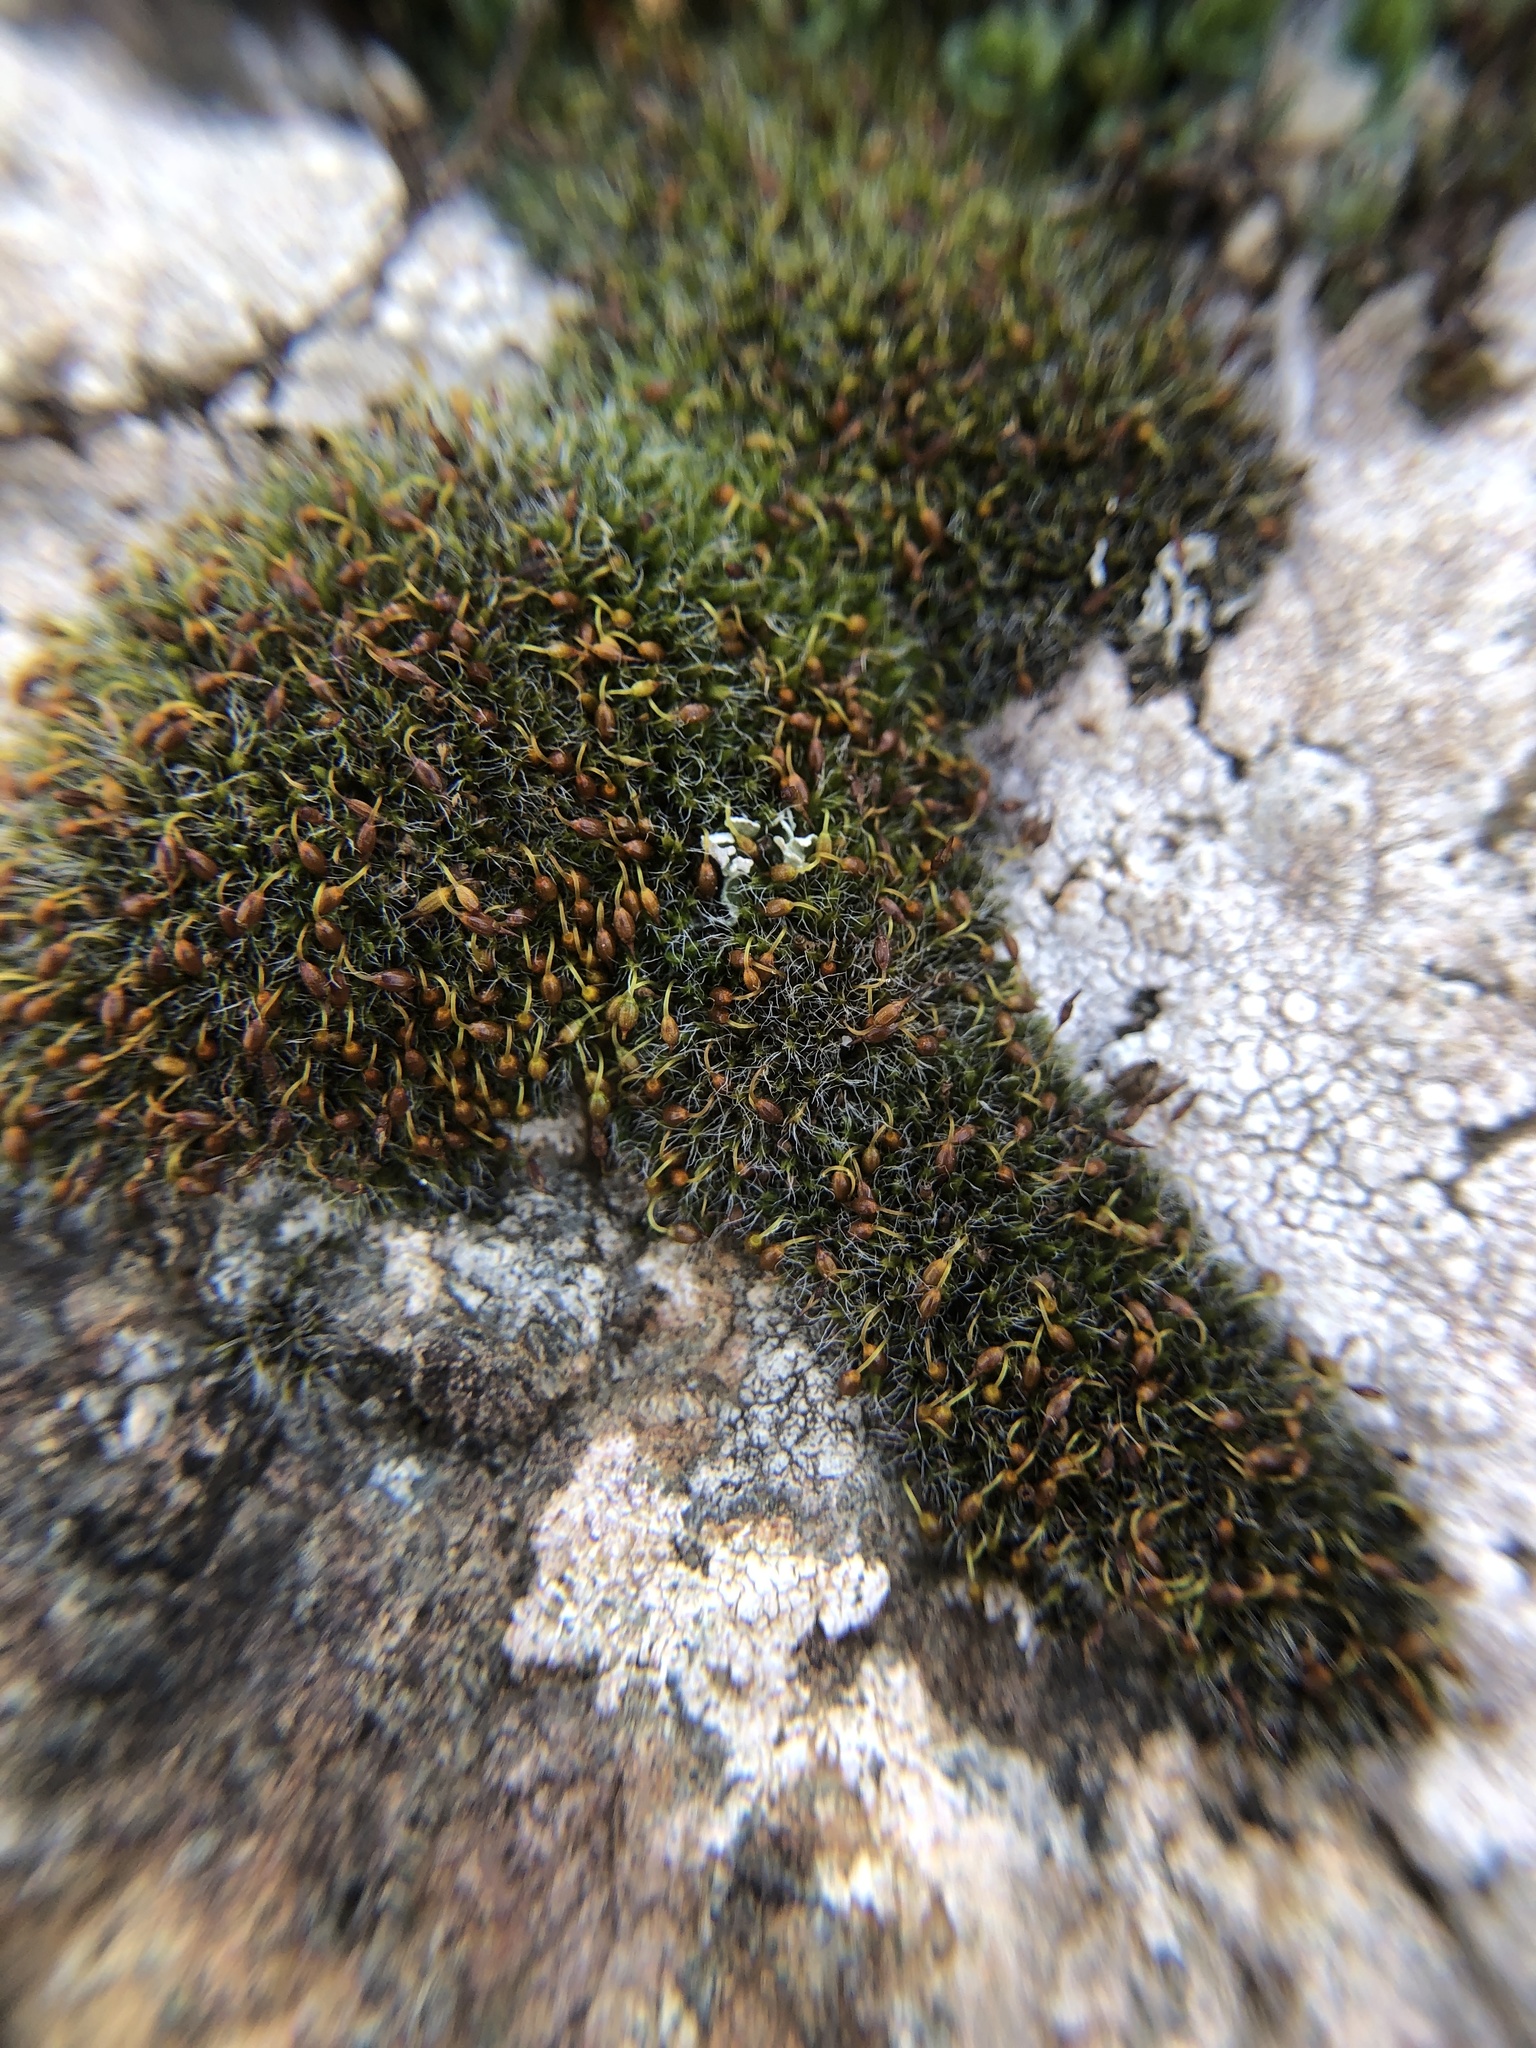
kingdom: Plantae
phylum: Bryophyta
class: Bryopsida
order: Grimmiales
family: Grimmiaceae
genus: Grimmia
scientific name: Grimmia pulvinata
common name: Grey-cushioned grimmia
